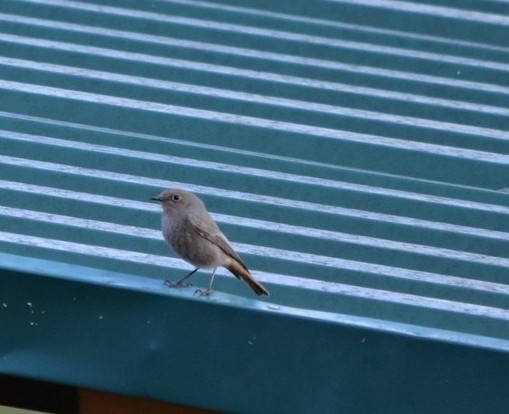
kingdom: Animalia
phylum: Chordata
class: Aves
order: Passeriformes
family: Muscicapidae
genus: Phoenicurus
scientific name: Phoenicurus ochruros
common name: Black redstart
